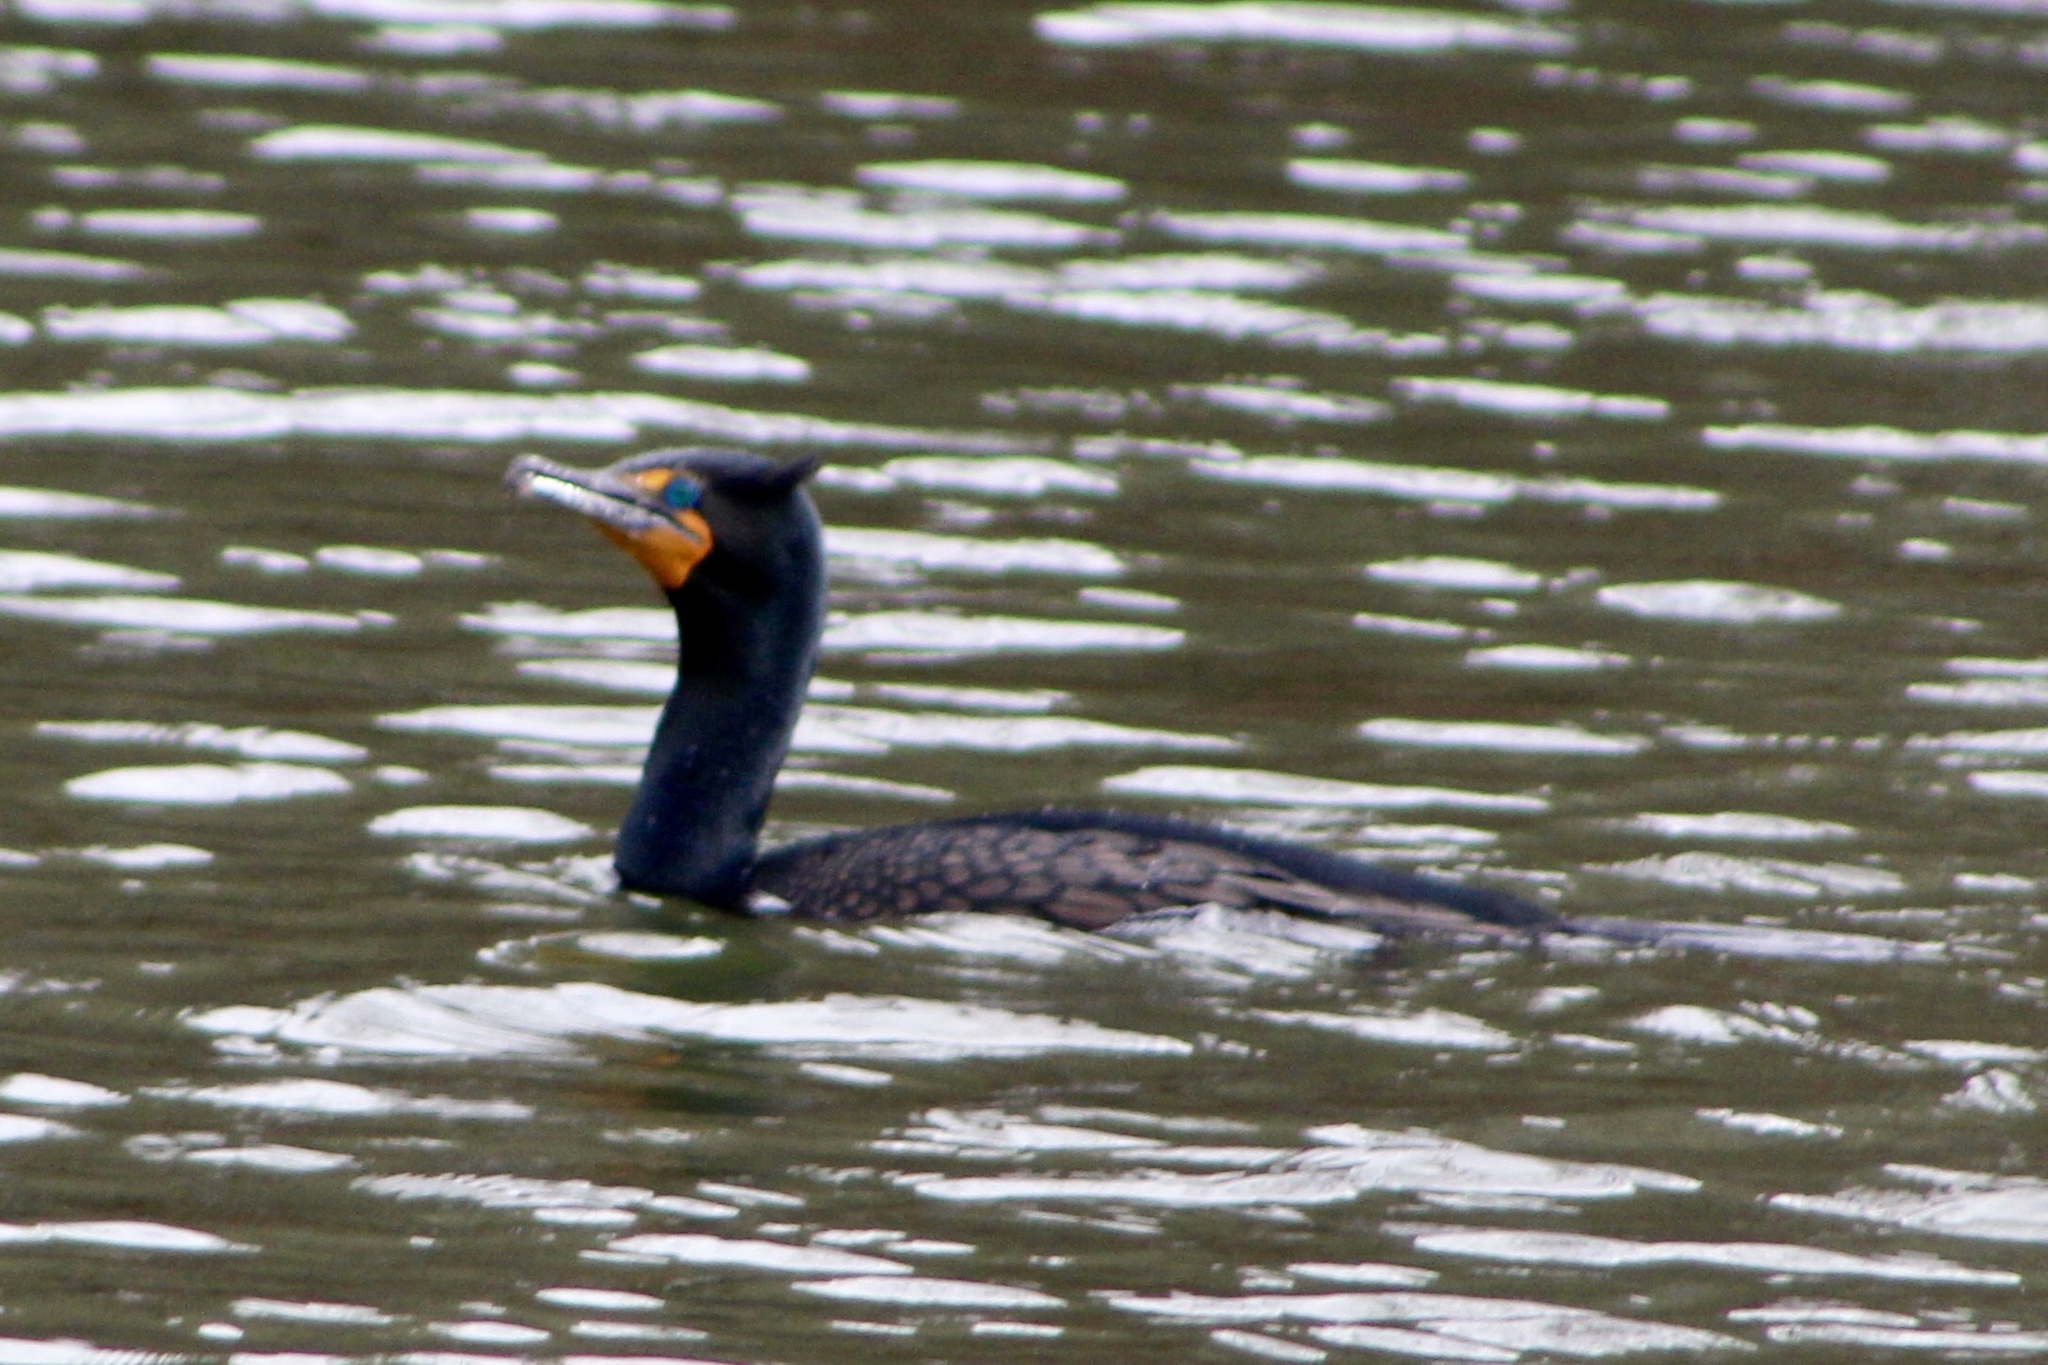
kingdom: Animalia
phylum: Chordata
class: Aves
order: Suliformes
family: Phalacrocoracidae
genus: Phalacrocorax
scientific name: Phalacrocorax auritus
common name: Double-crested cormorant
